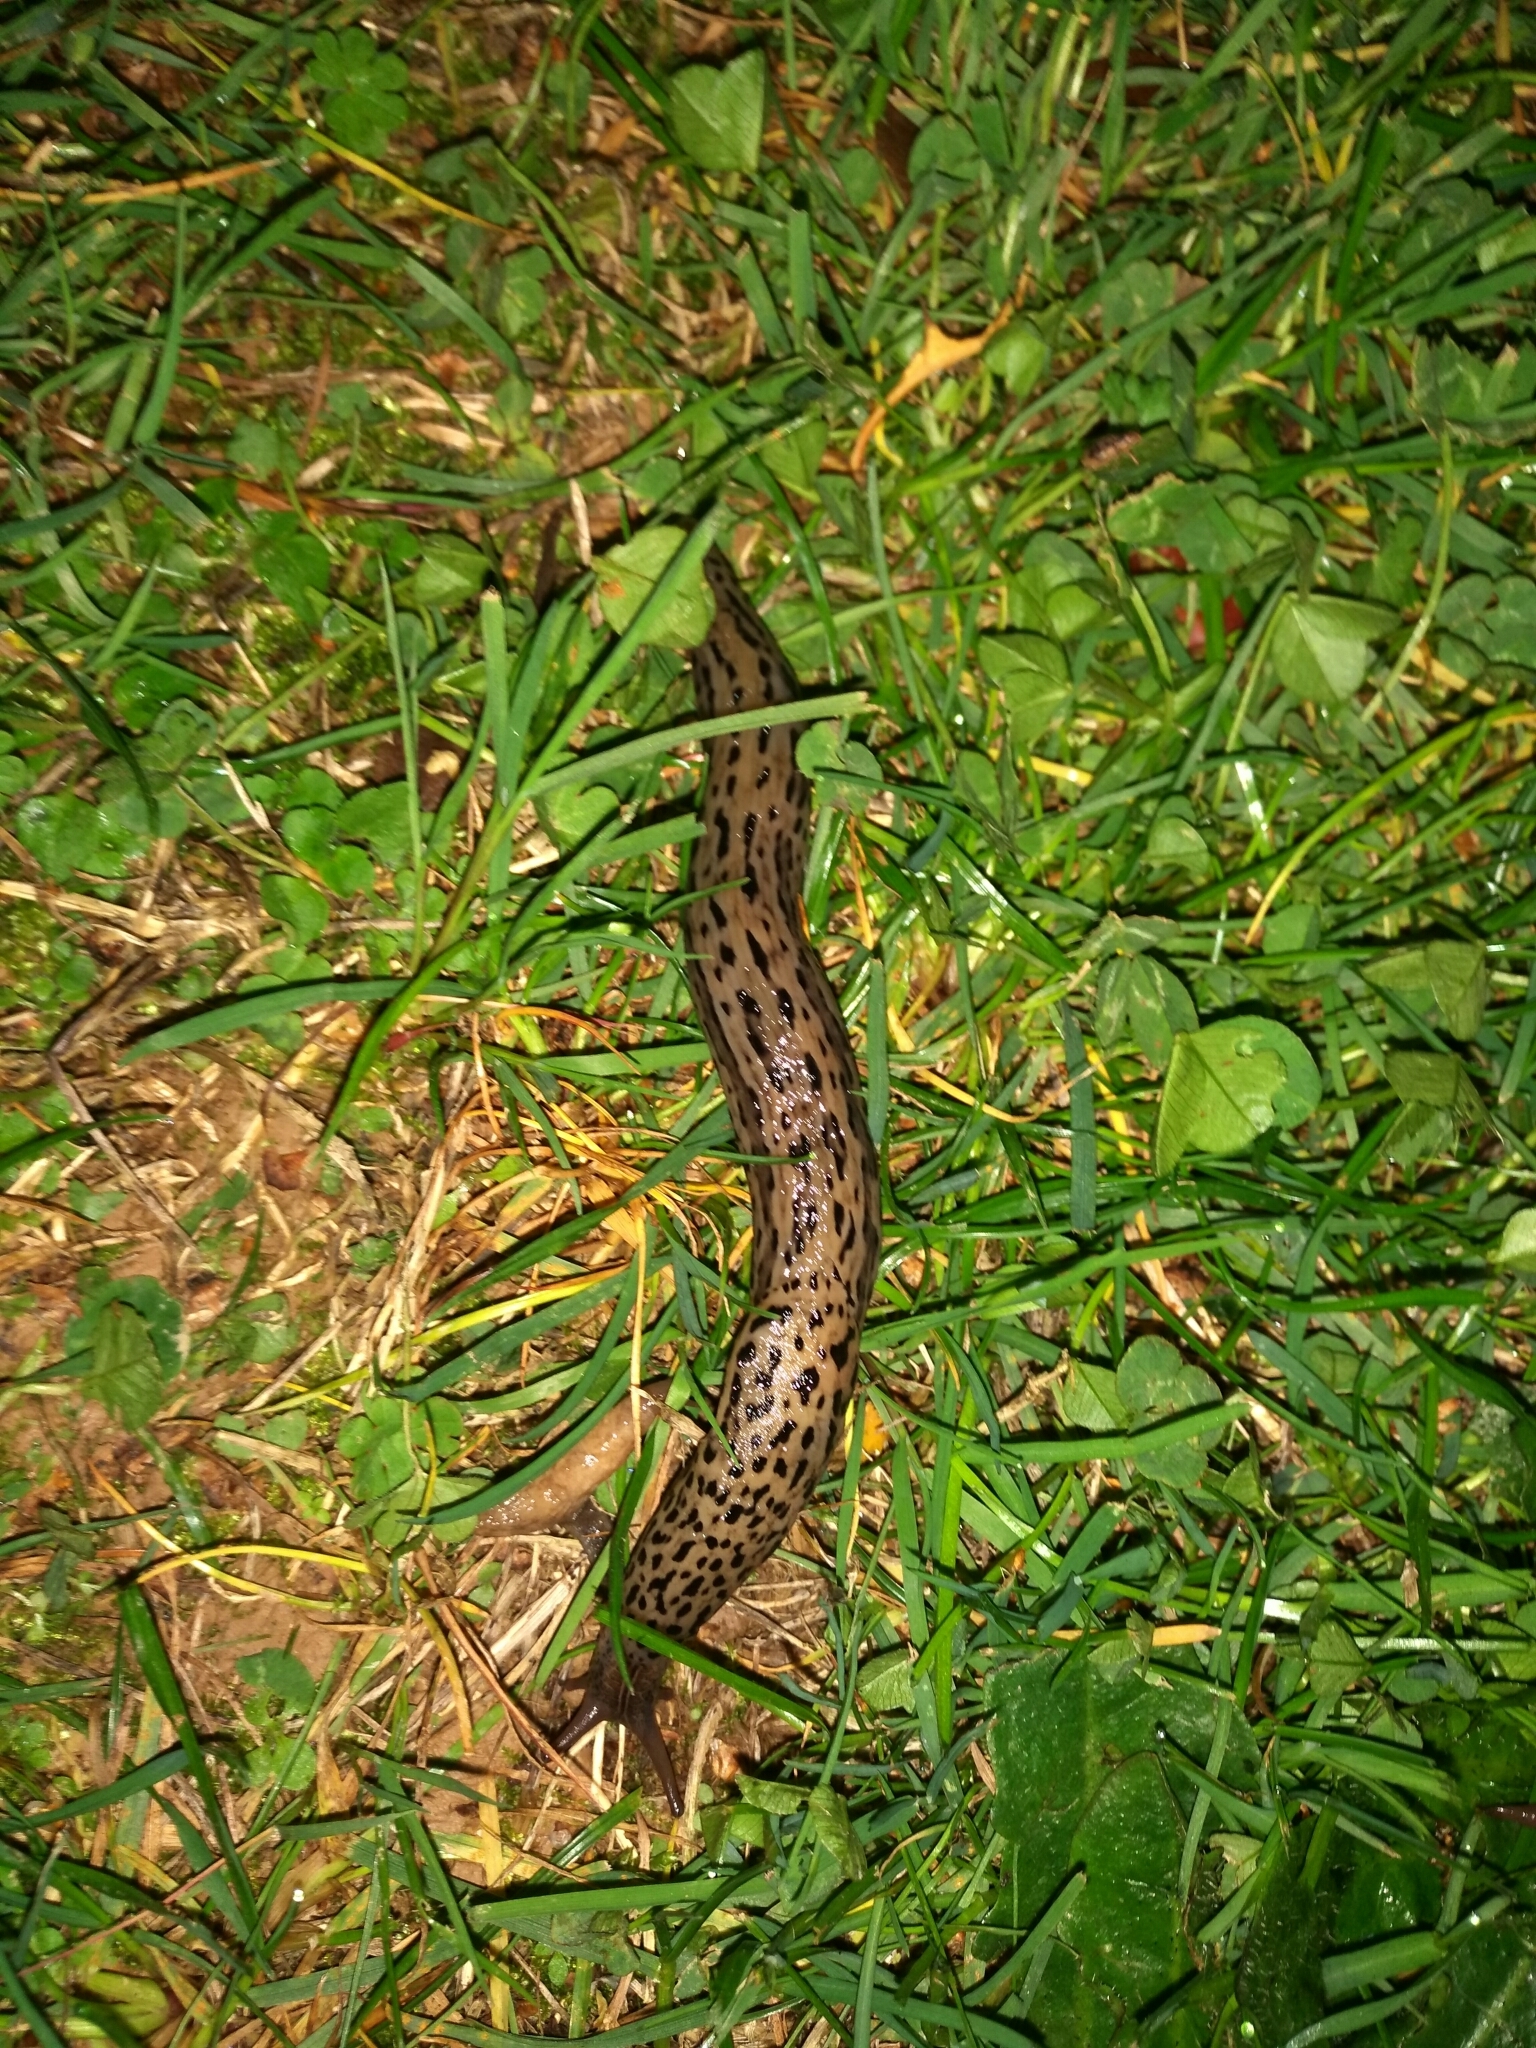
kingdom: Animalia
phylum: Mollusca
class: Gastropoda
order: Stylommatophora
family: Limacidae
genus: Limax
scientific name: Limax maximus
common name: Great grey slug
